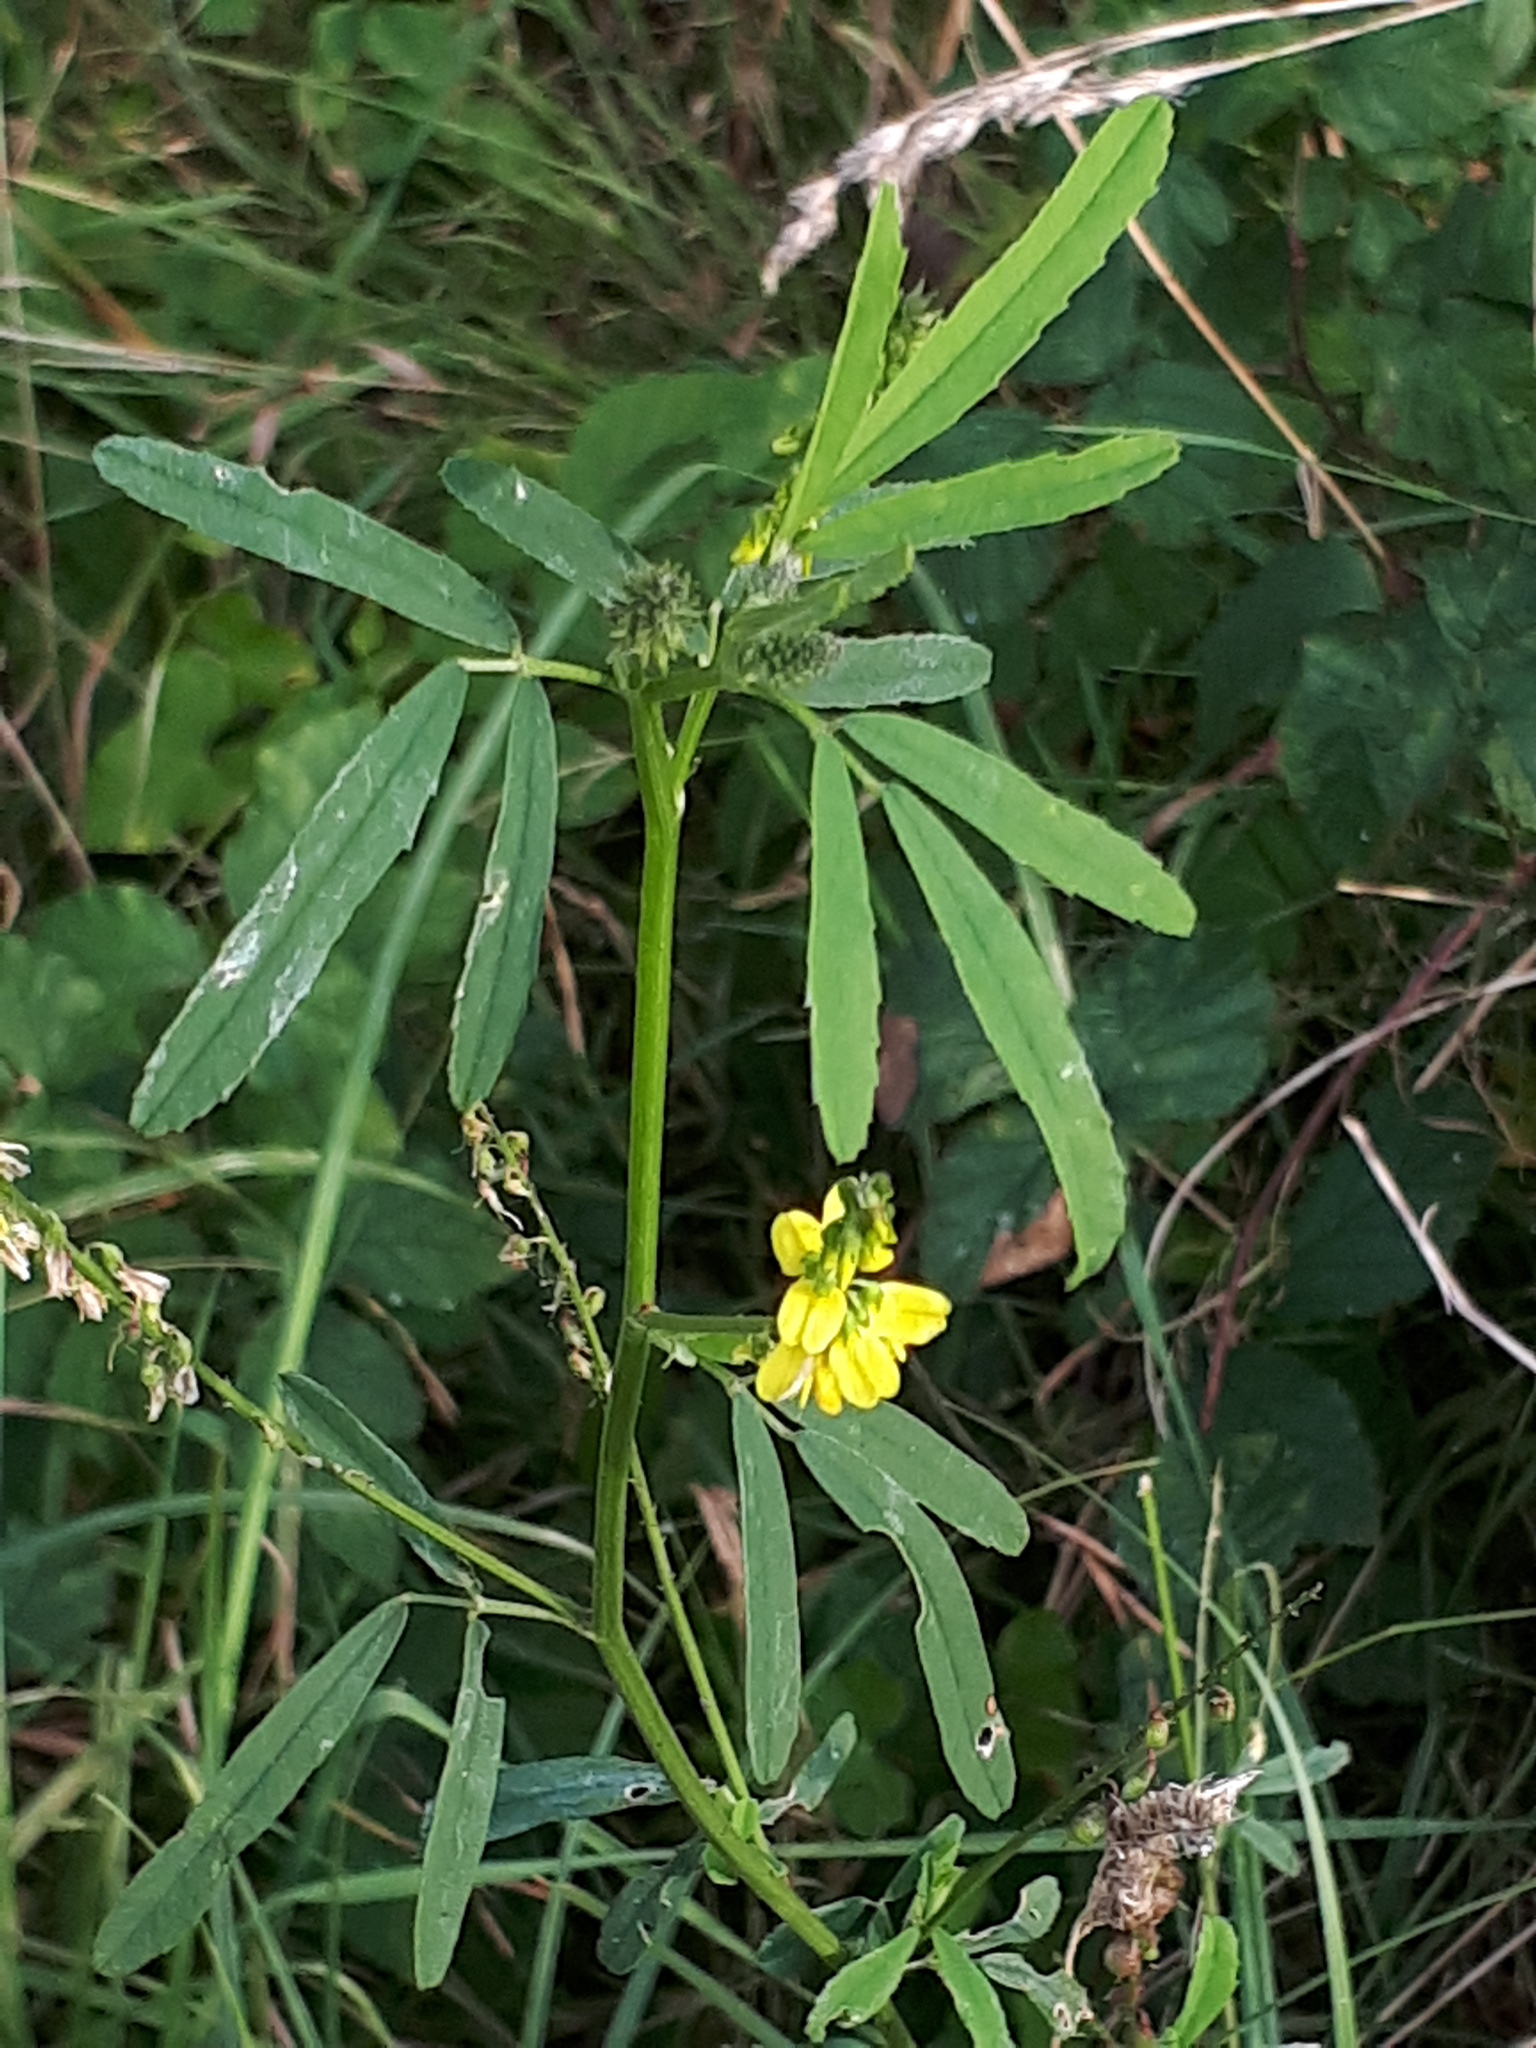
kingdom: Plantae
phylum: Tracheophyta
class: Magnoliopsida
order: Fabales
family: Fabaceae
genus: Melilotus
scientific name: Melilotus officinalis
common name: Sweetclover
